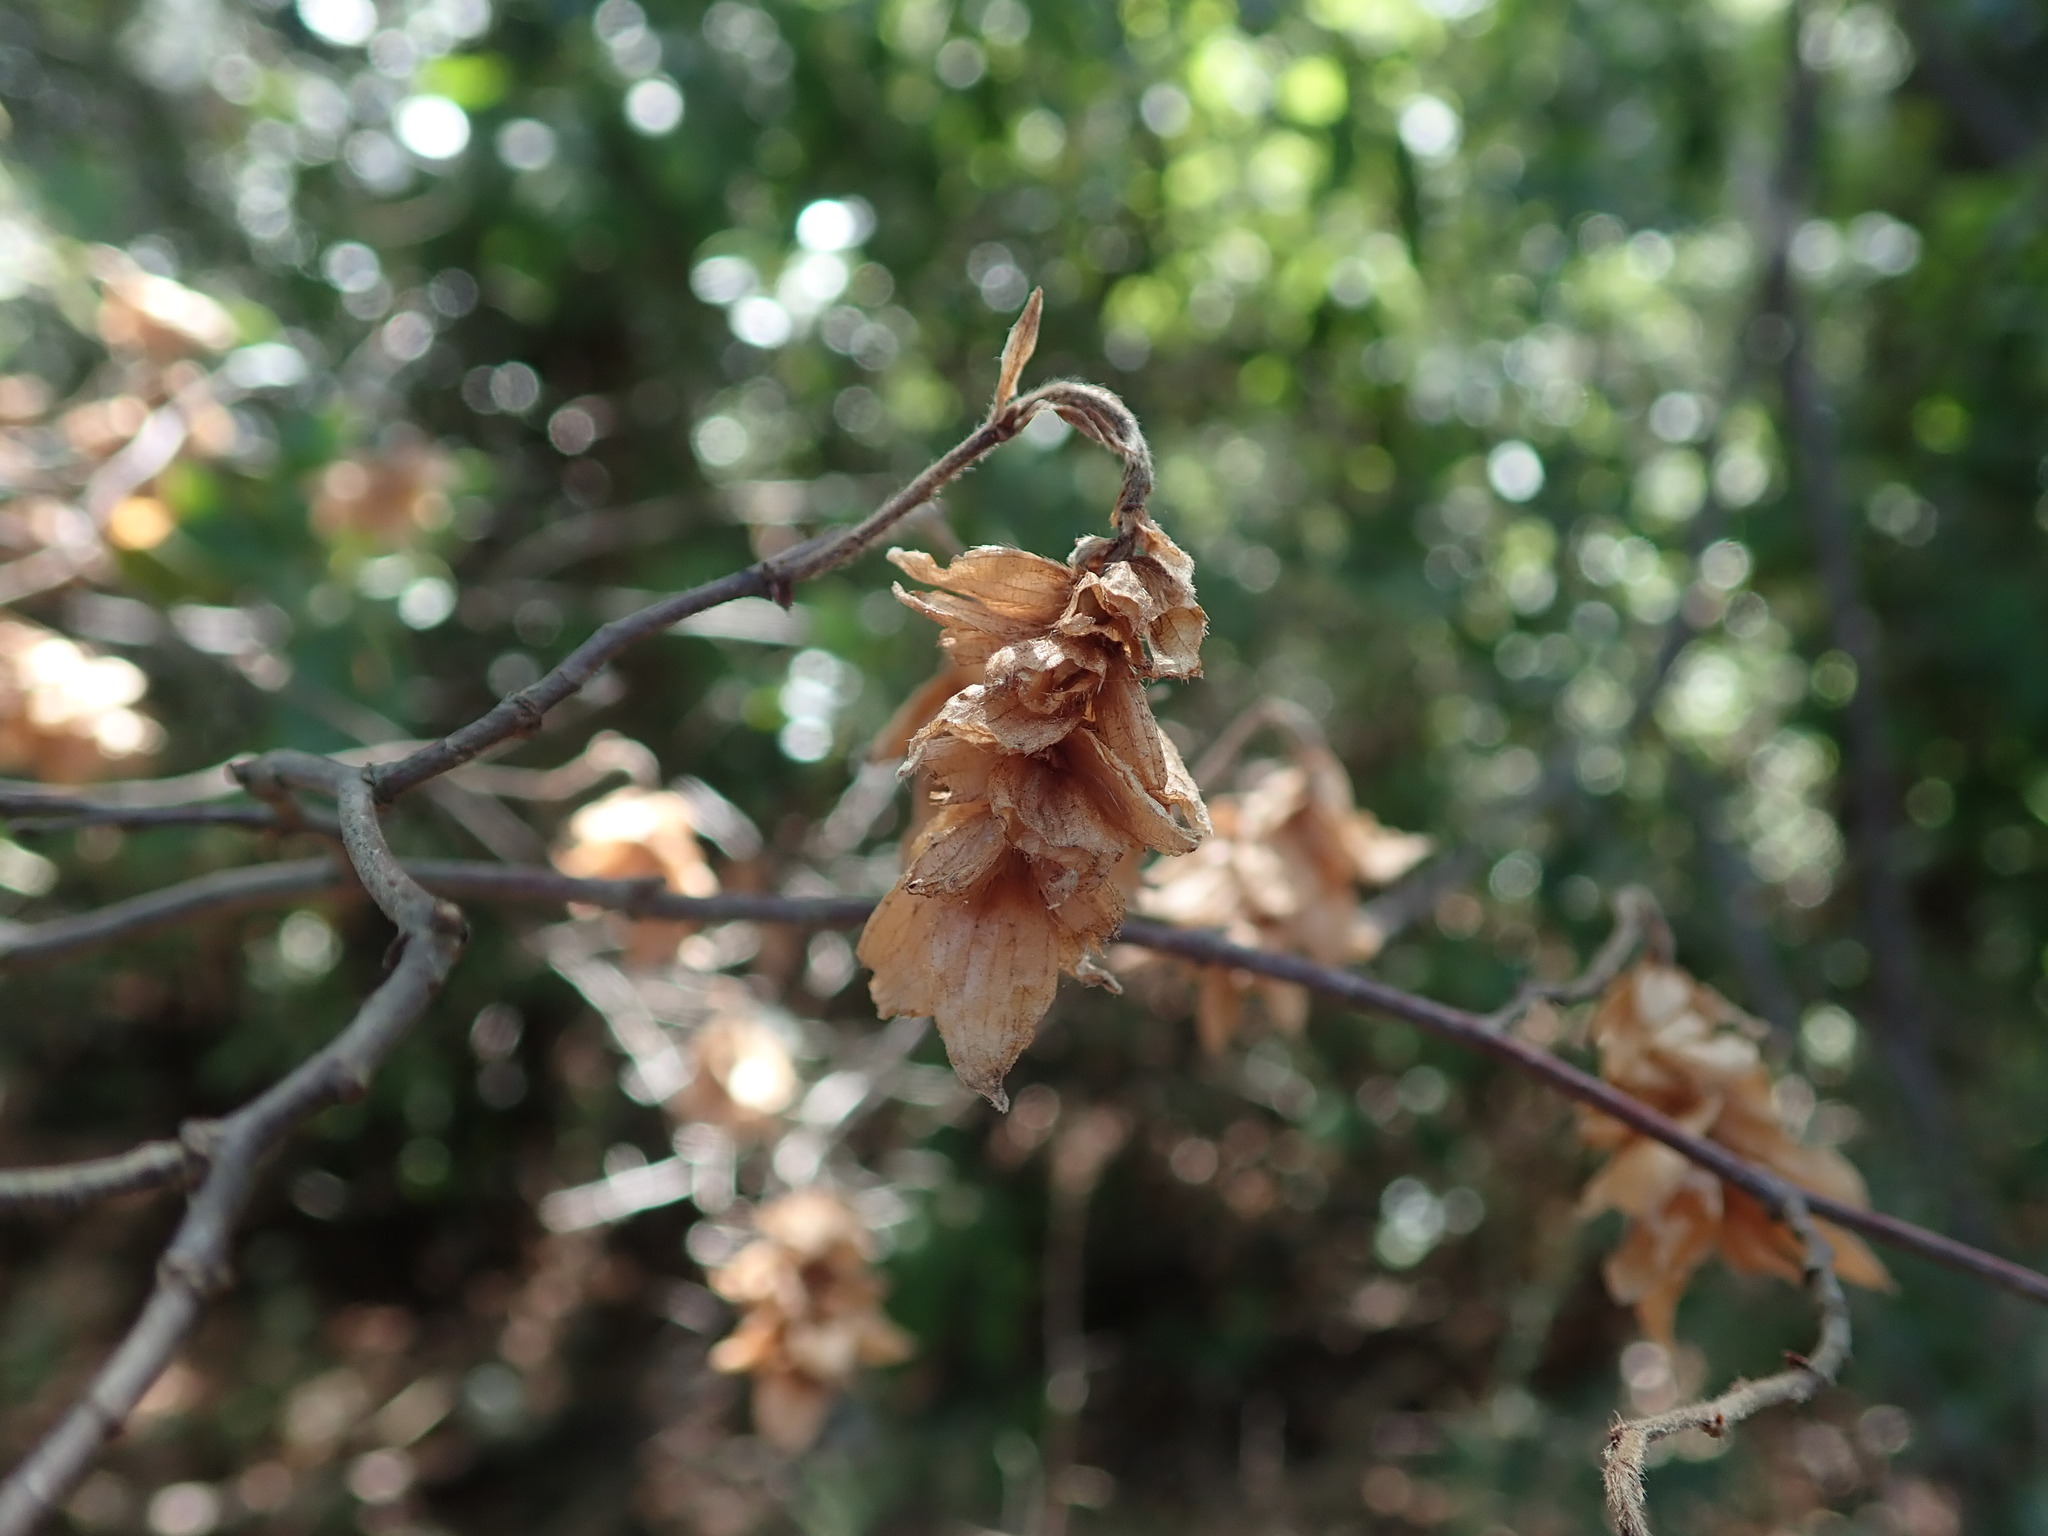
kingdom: Plantae
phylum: Tracheophyta
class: Magnoliopsida
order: Fagales
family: Betulaceae
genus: Ostrya
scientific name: Ostrya carpinifolia
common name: European hop-hornbeam
